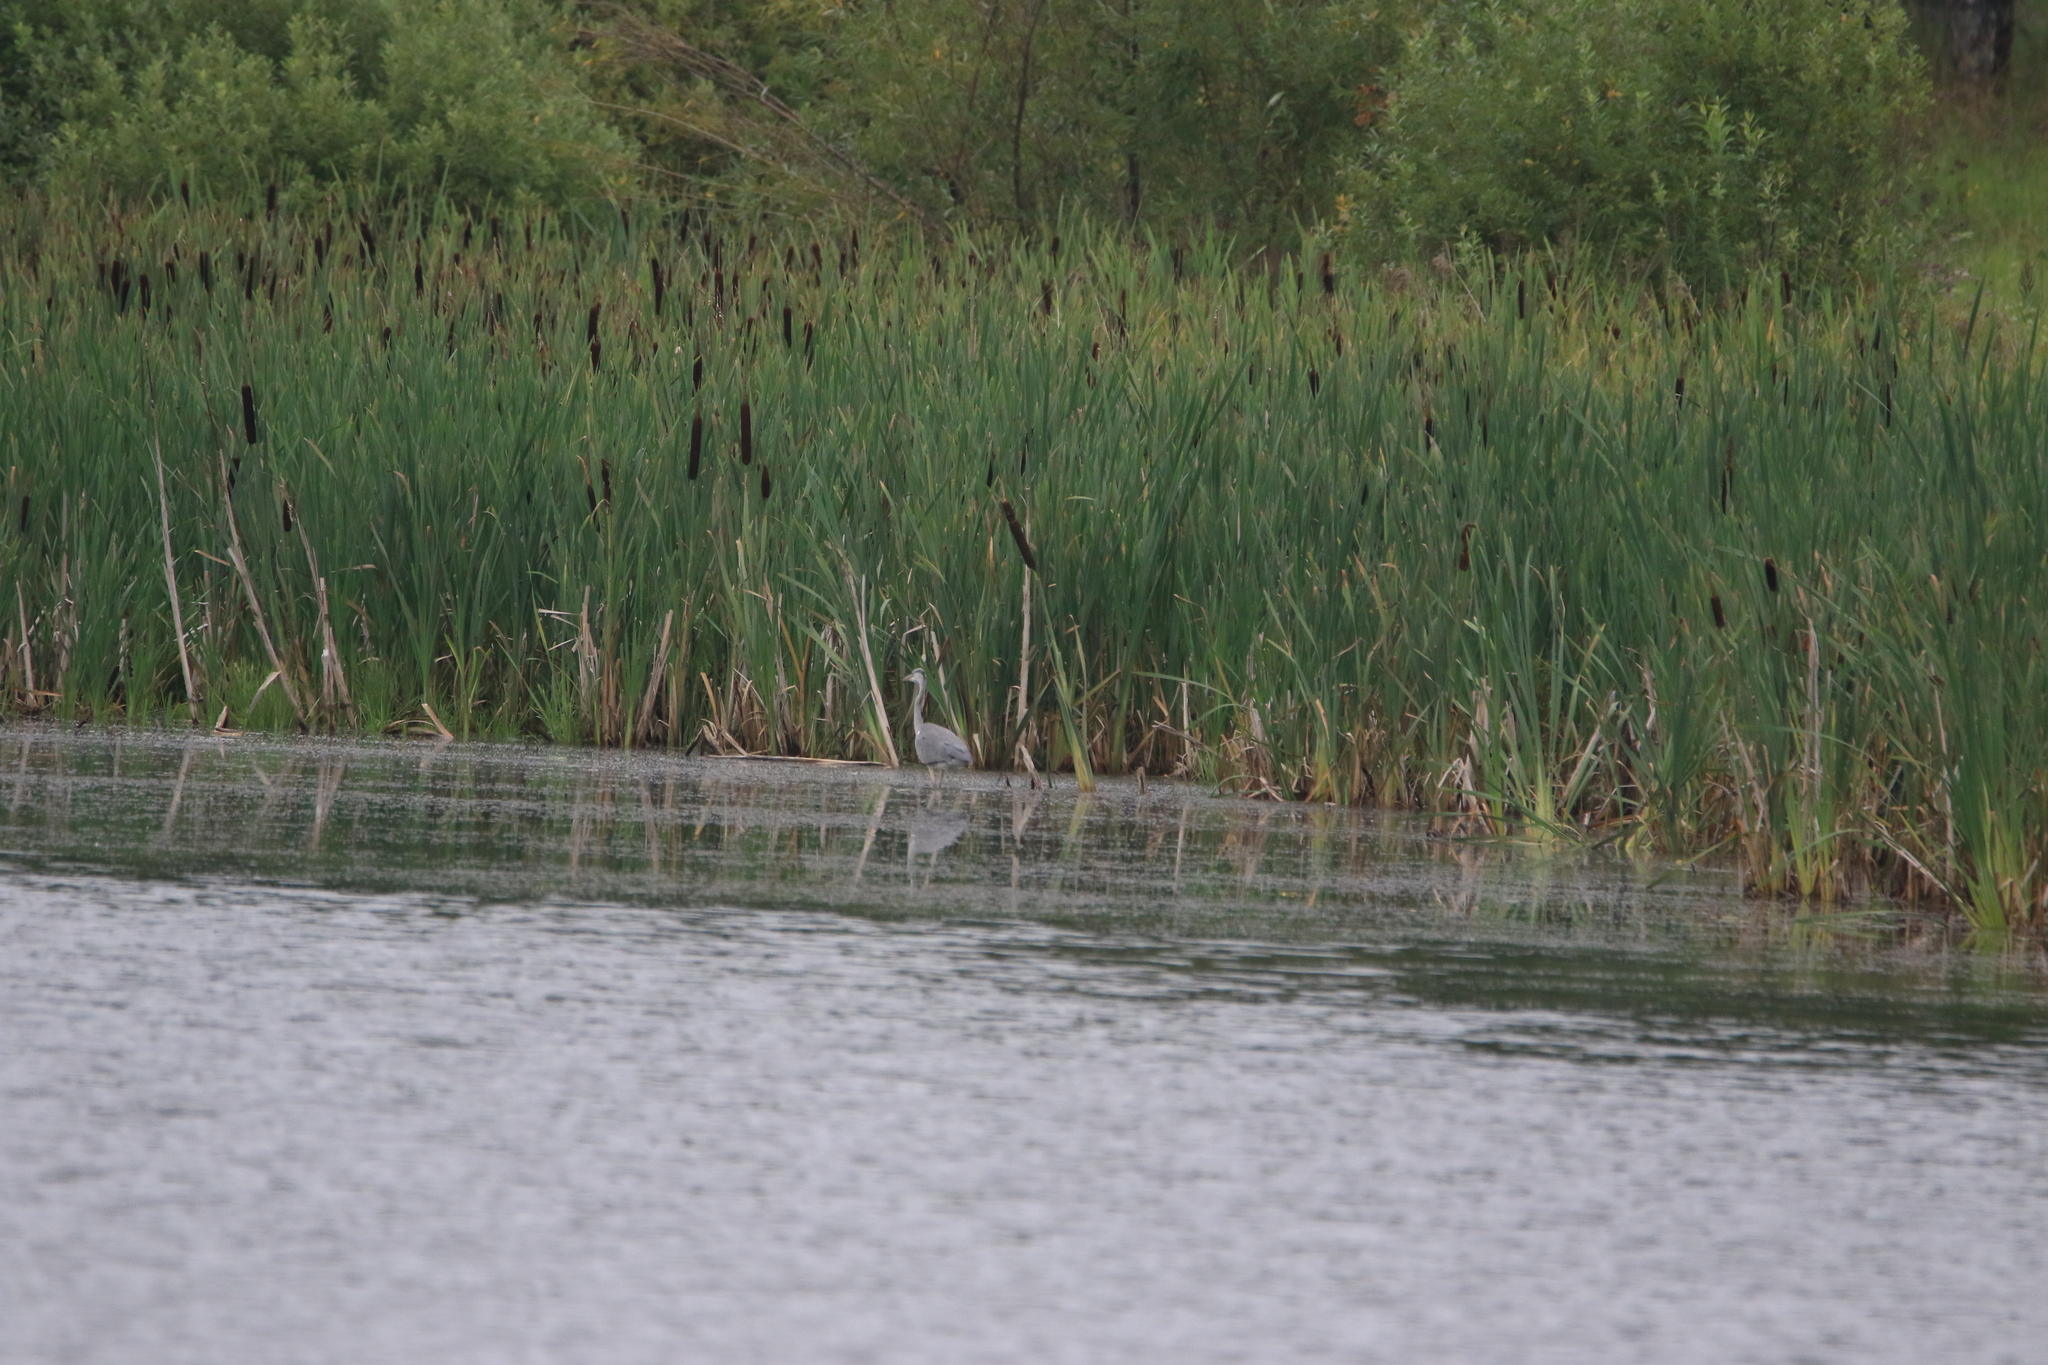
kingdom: Animalia
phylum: Chordata
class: Aves
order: Pelecaniformes
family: Ardeidae
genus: Ardea
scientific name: Ardea cinerea
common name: Grey heron
